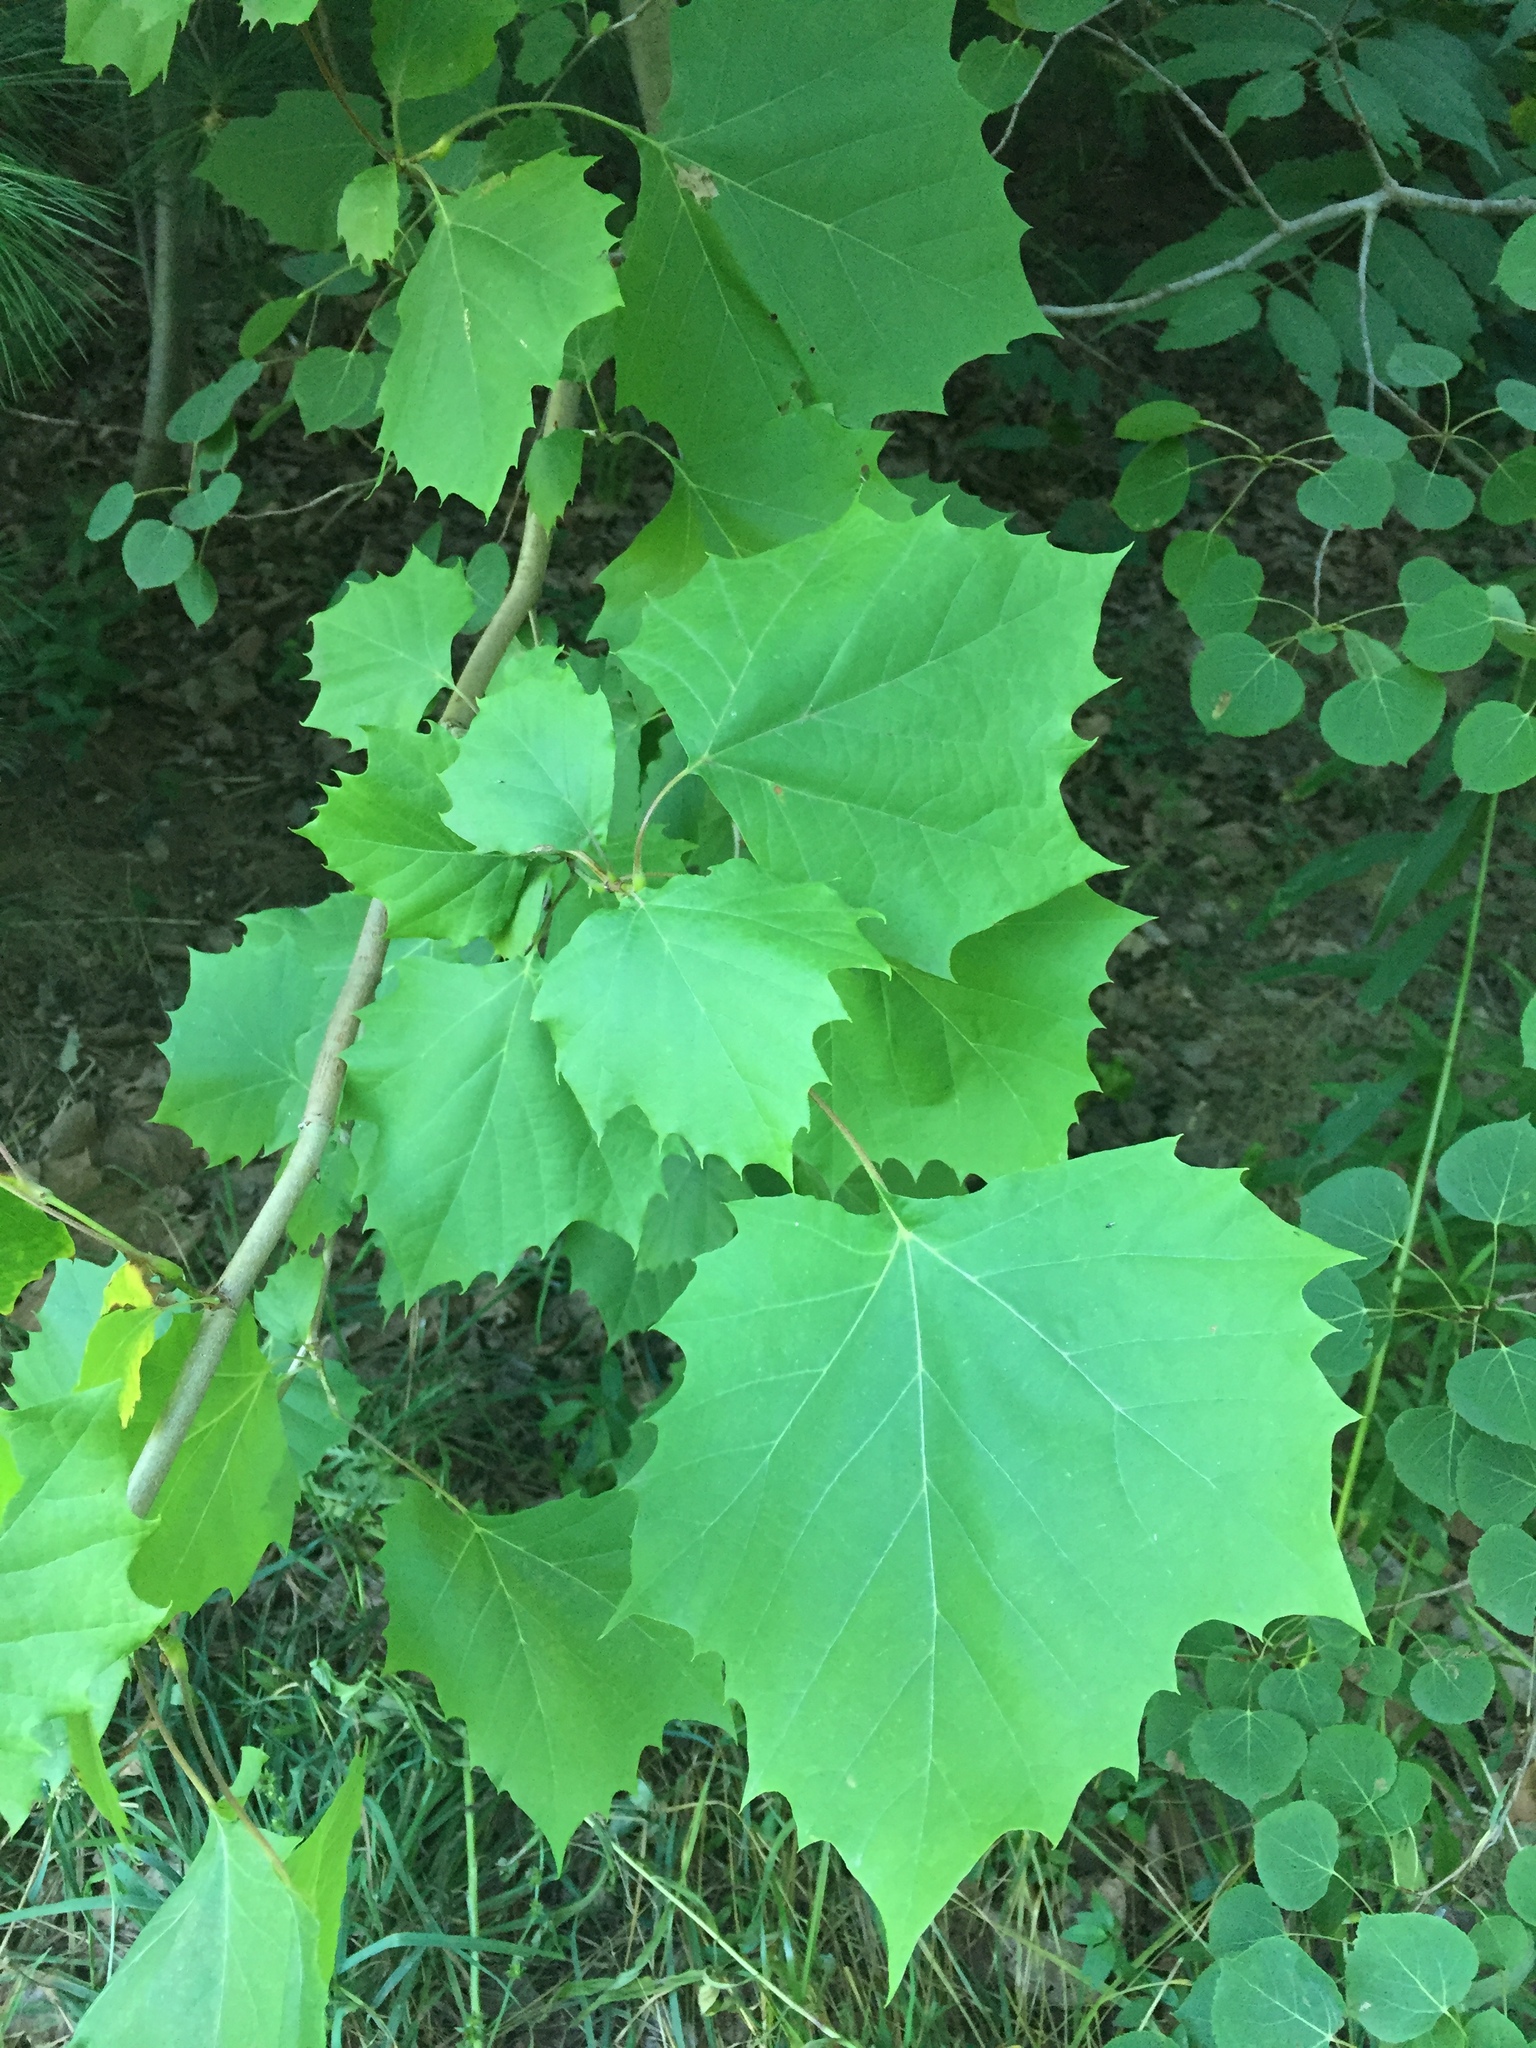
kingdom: Plantae
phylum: Tracheophyta
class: Magnoliopsida
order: Proteales
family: Platanaceae
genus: Platanus
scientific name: Platanus occidentalis
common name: American sycamore
